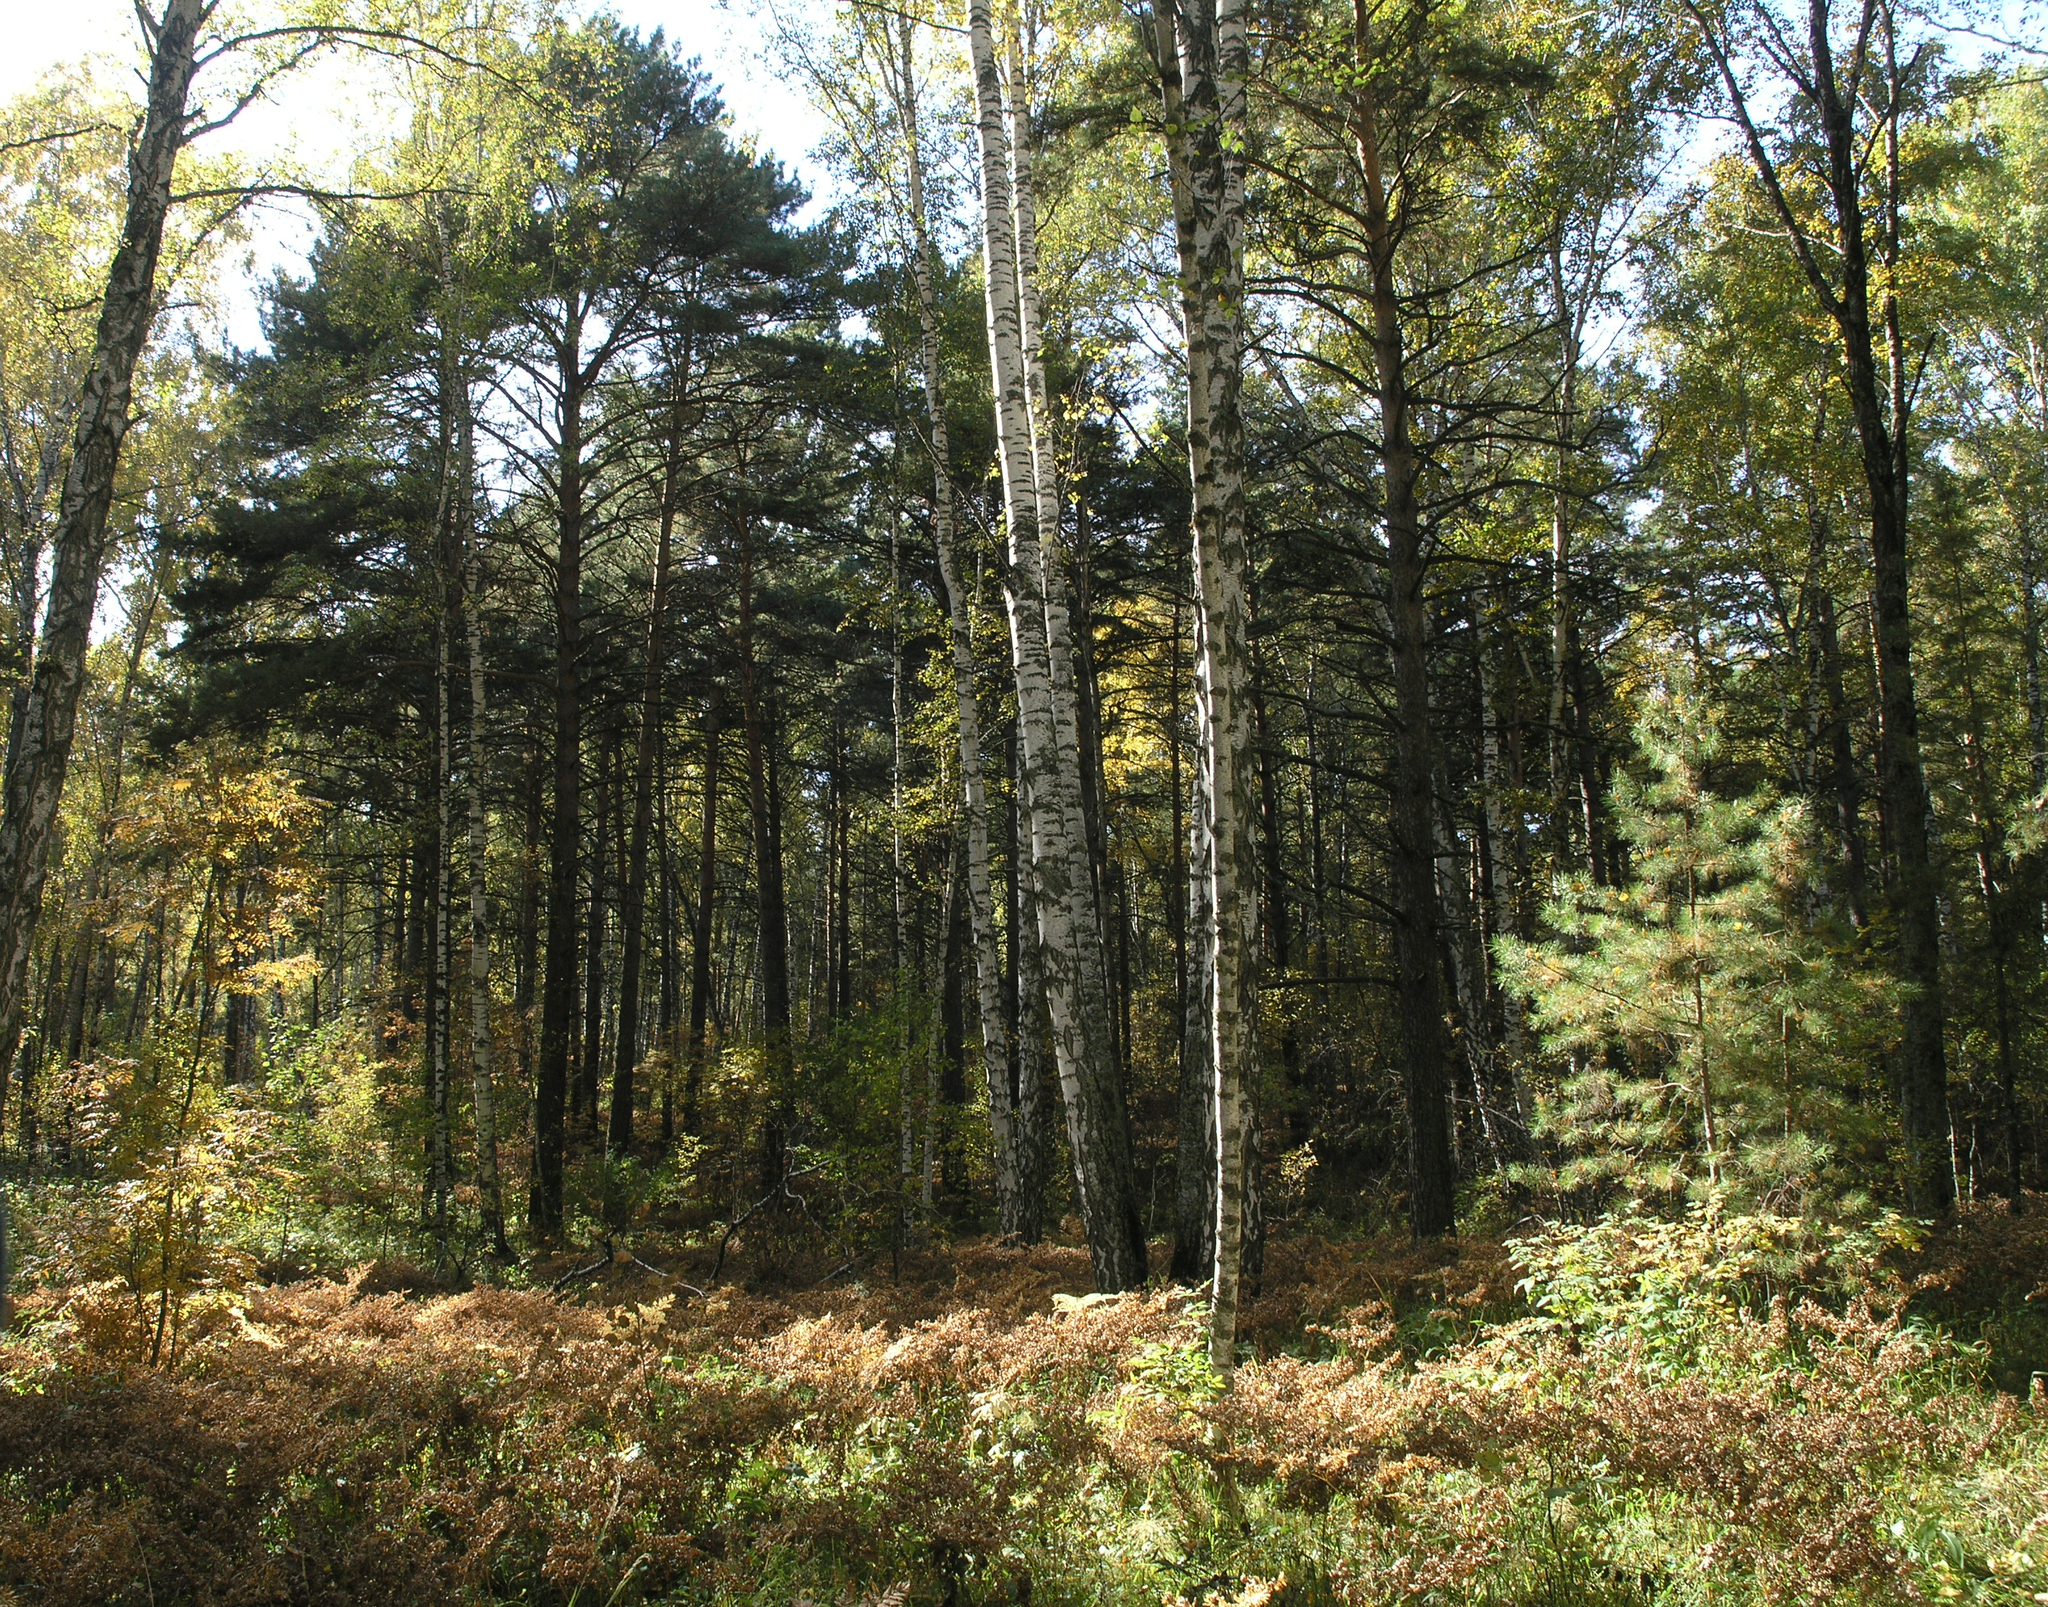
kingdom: Plantae
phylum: Tracheophyta
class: Pinopsida
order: Pinales
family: Pinaceae
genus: Pinus
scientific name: Pinus sylvestris
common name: Scots pine
